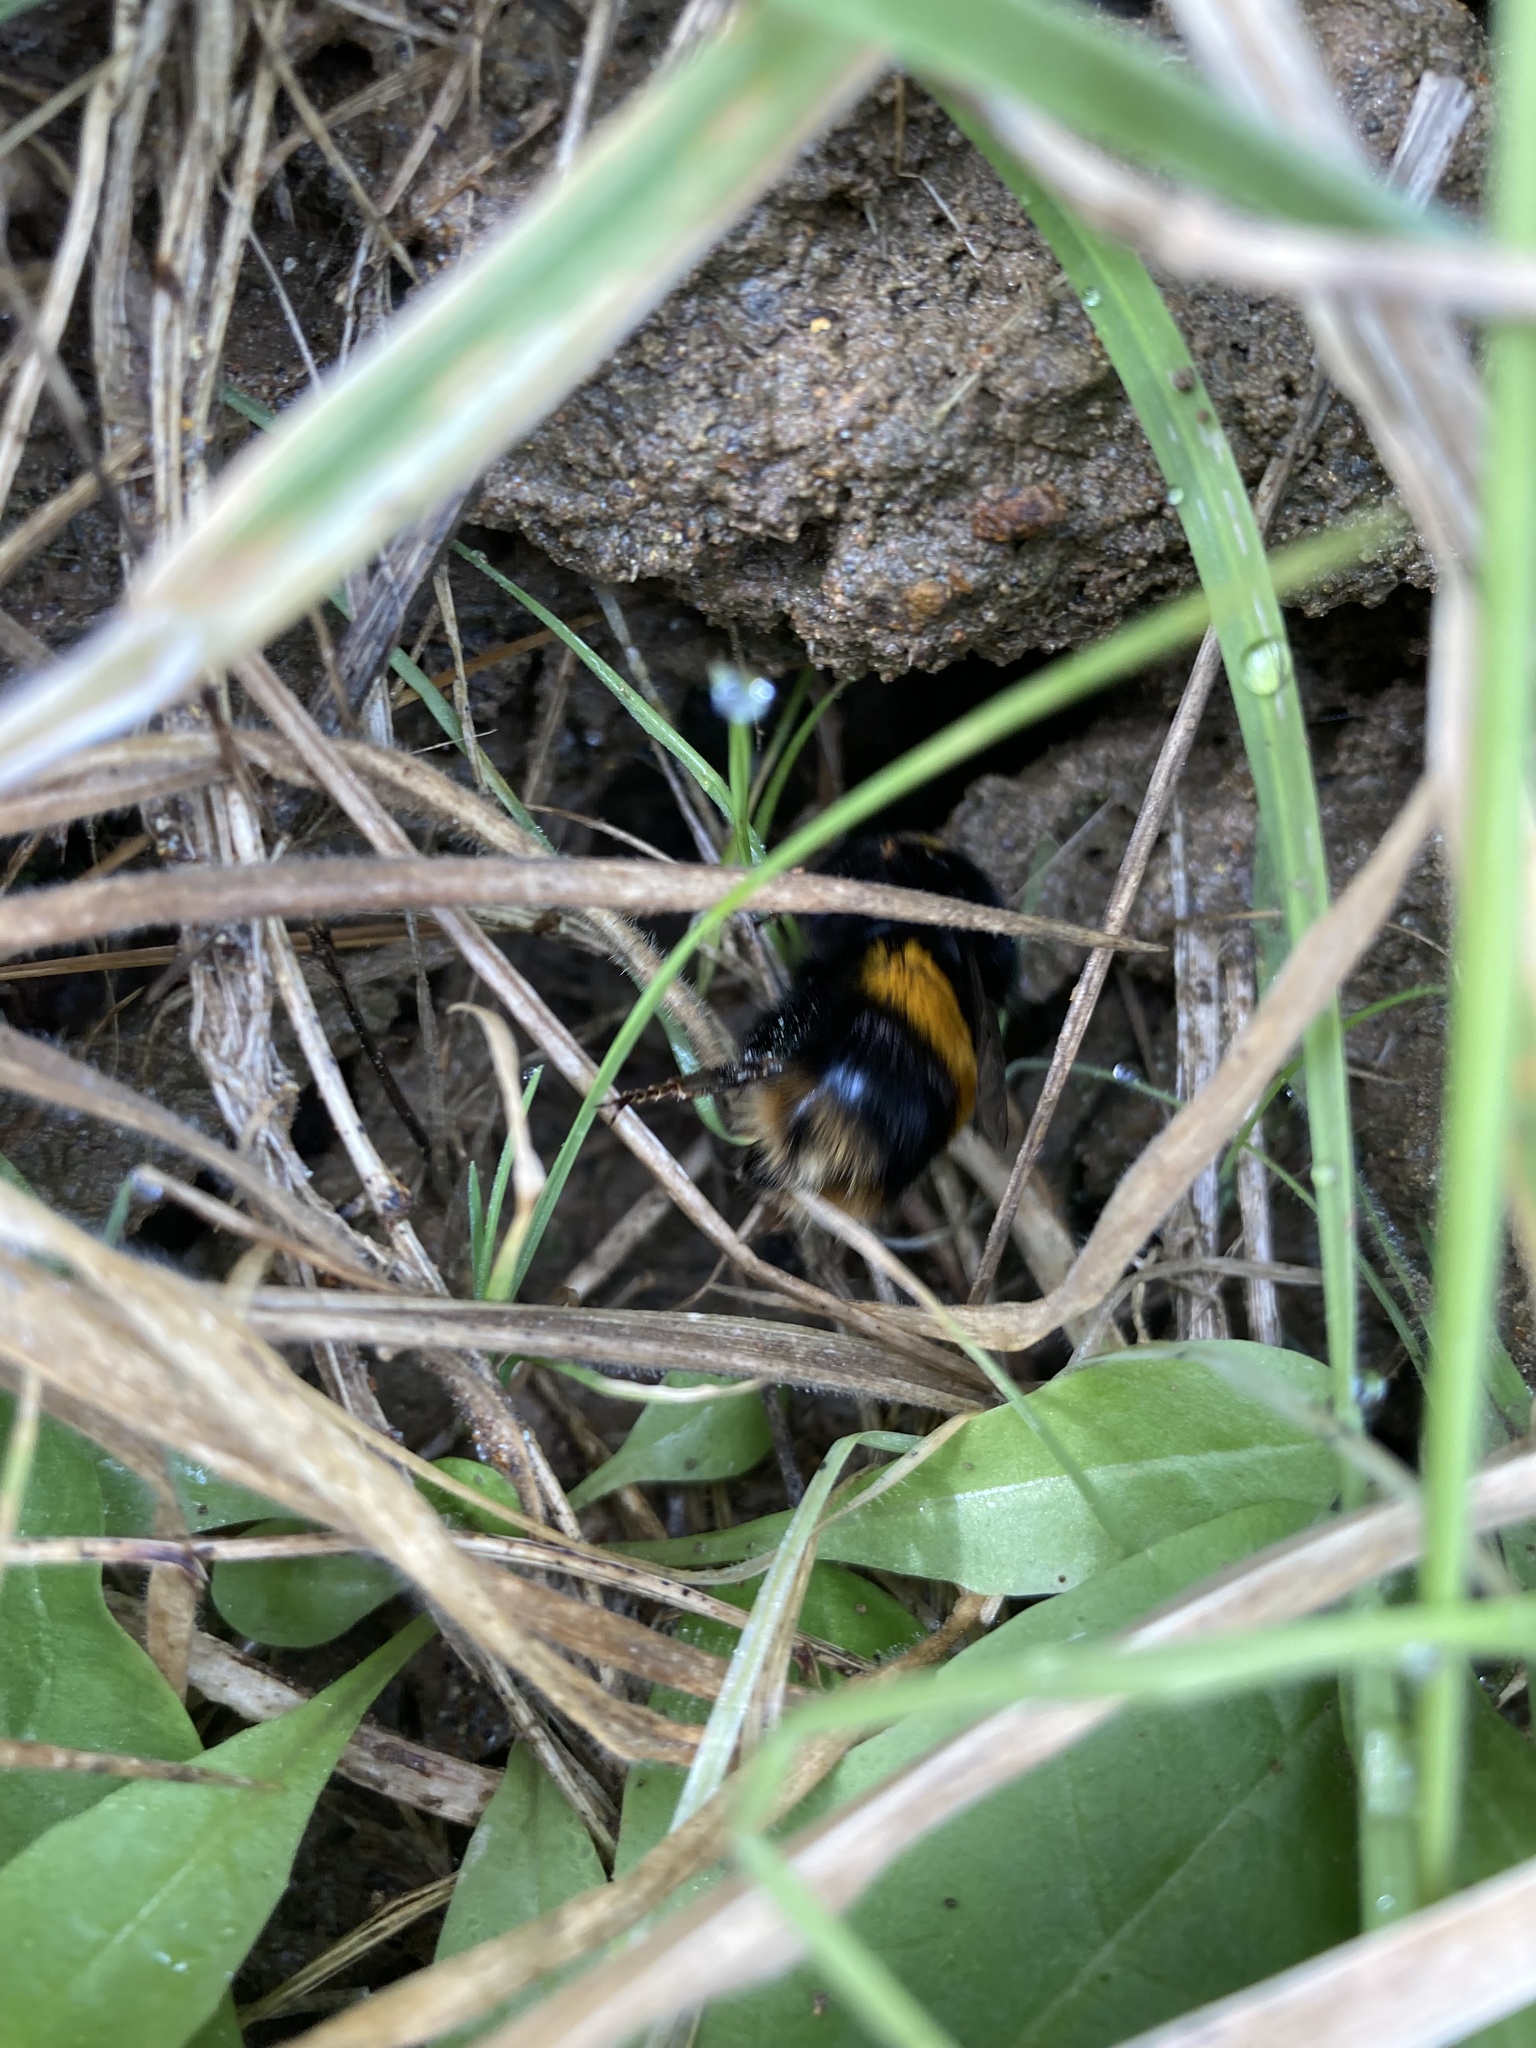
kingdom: Animalia
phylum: Arthropoda
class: Insecta
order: Hymenoptera
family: Apidae
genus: Bombus
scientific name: Bombus terrestris
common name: Buff-tailed bumblebee
